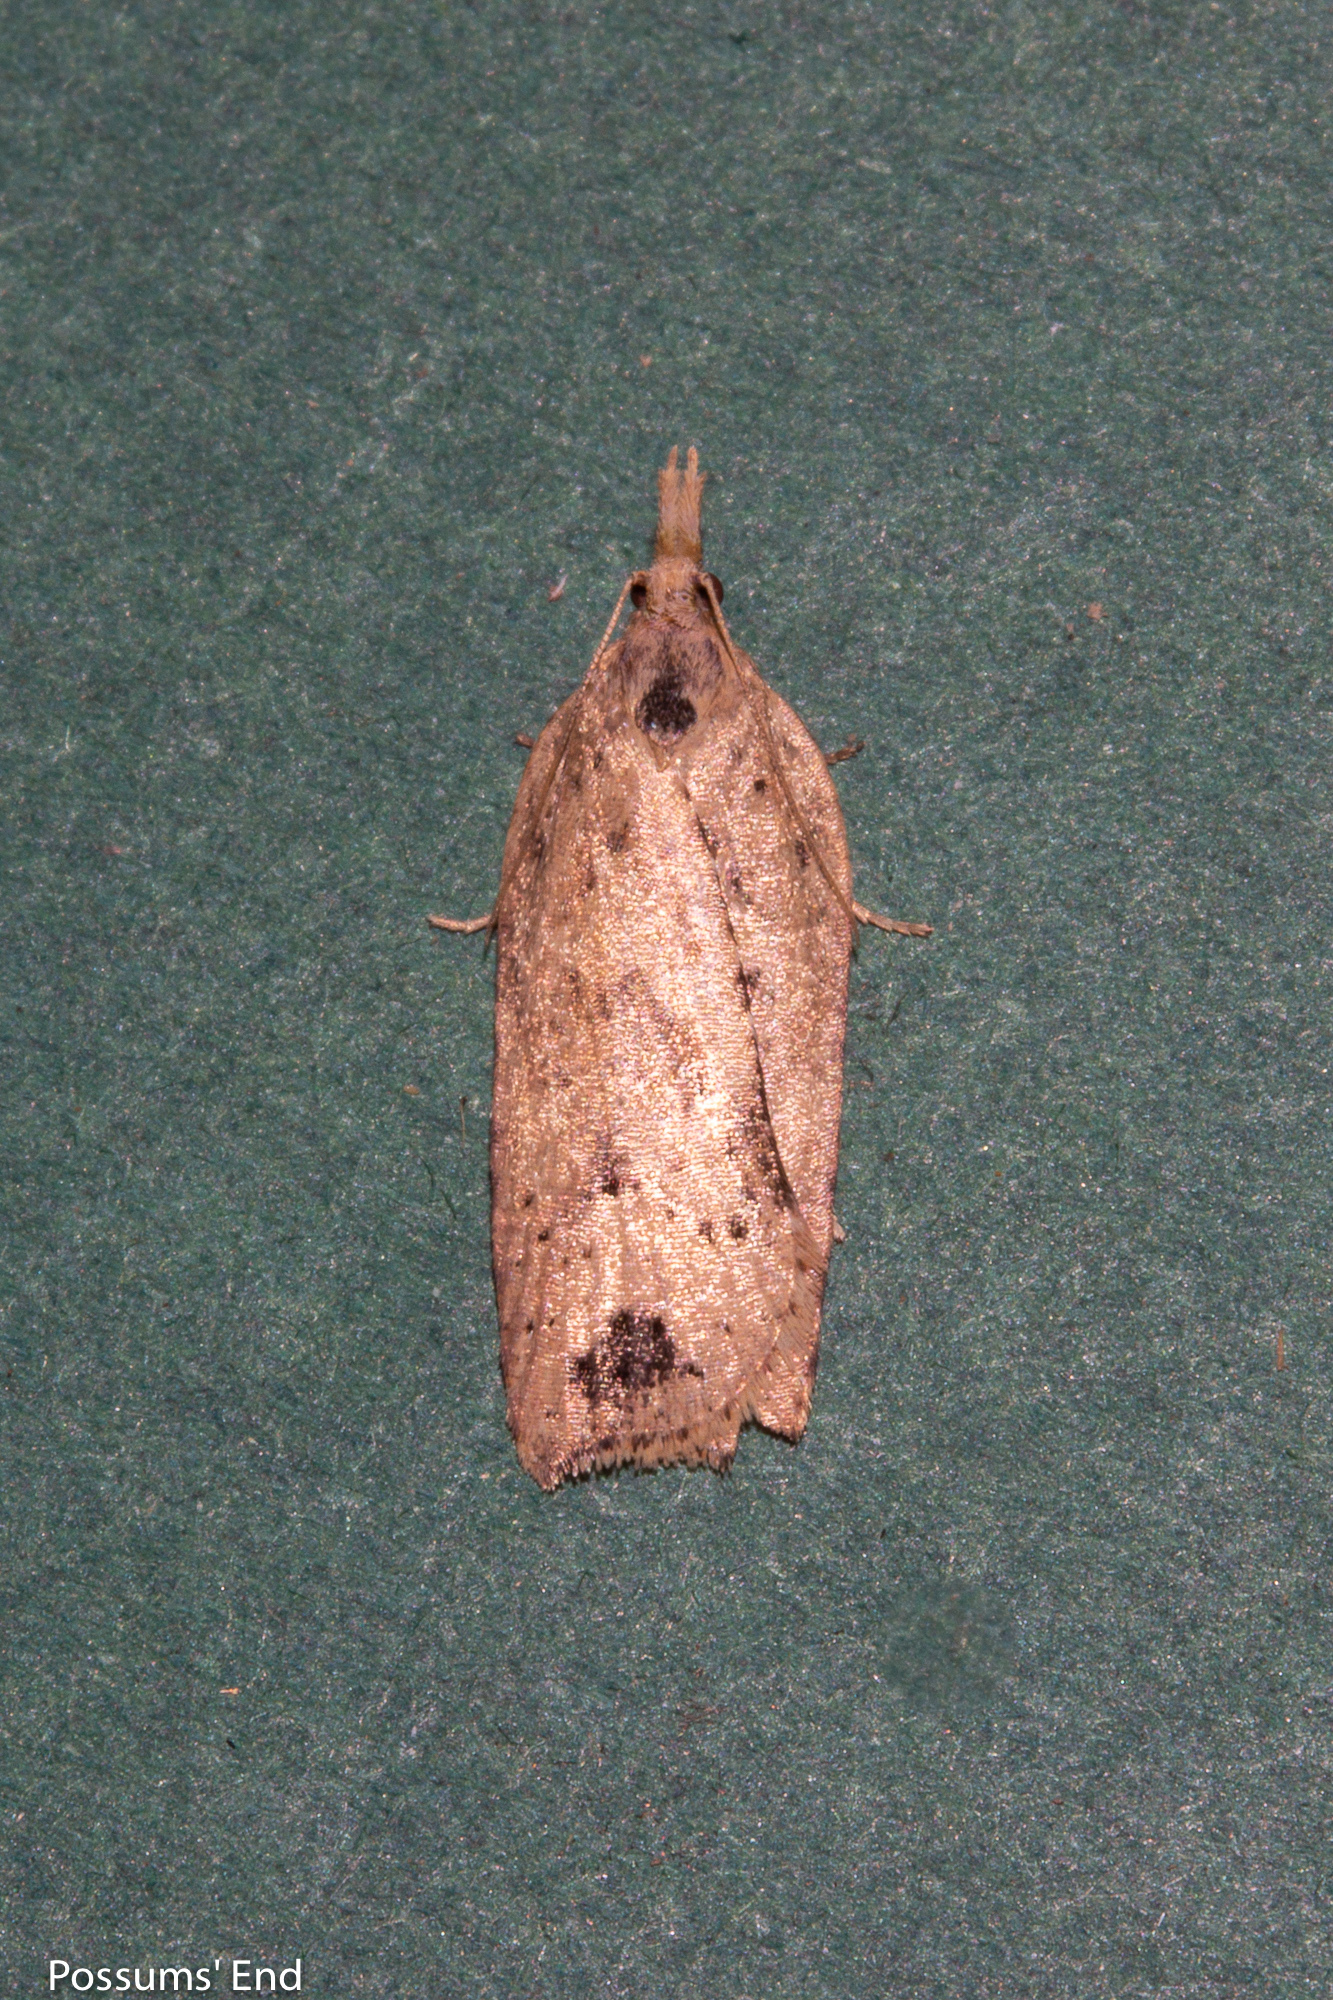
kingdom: Animalia
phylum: Arthropoda
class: Insecta
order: Lepidoptera
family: Tortricidae
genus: Planotortrix
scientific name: Planotortrix notophaea
